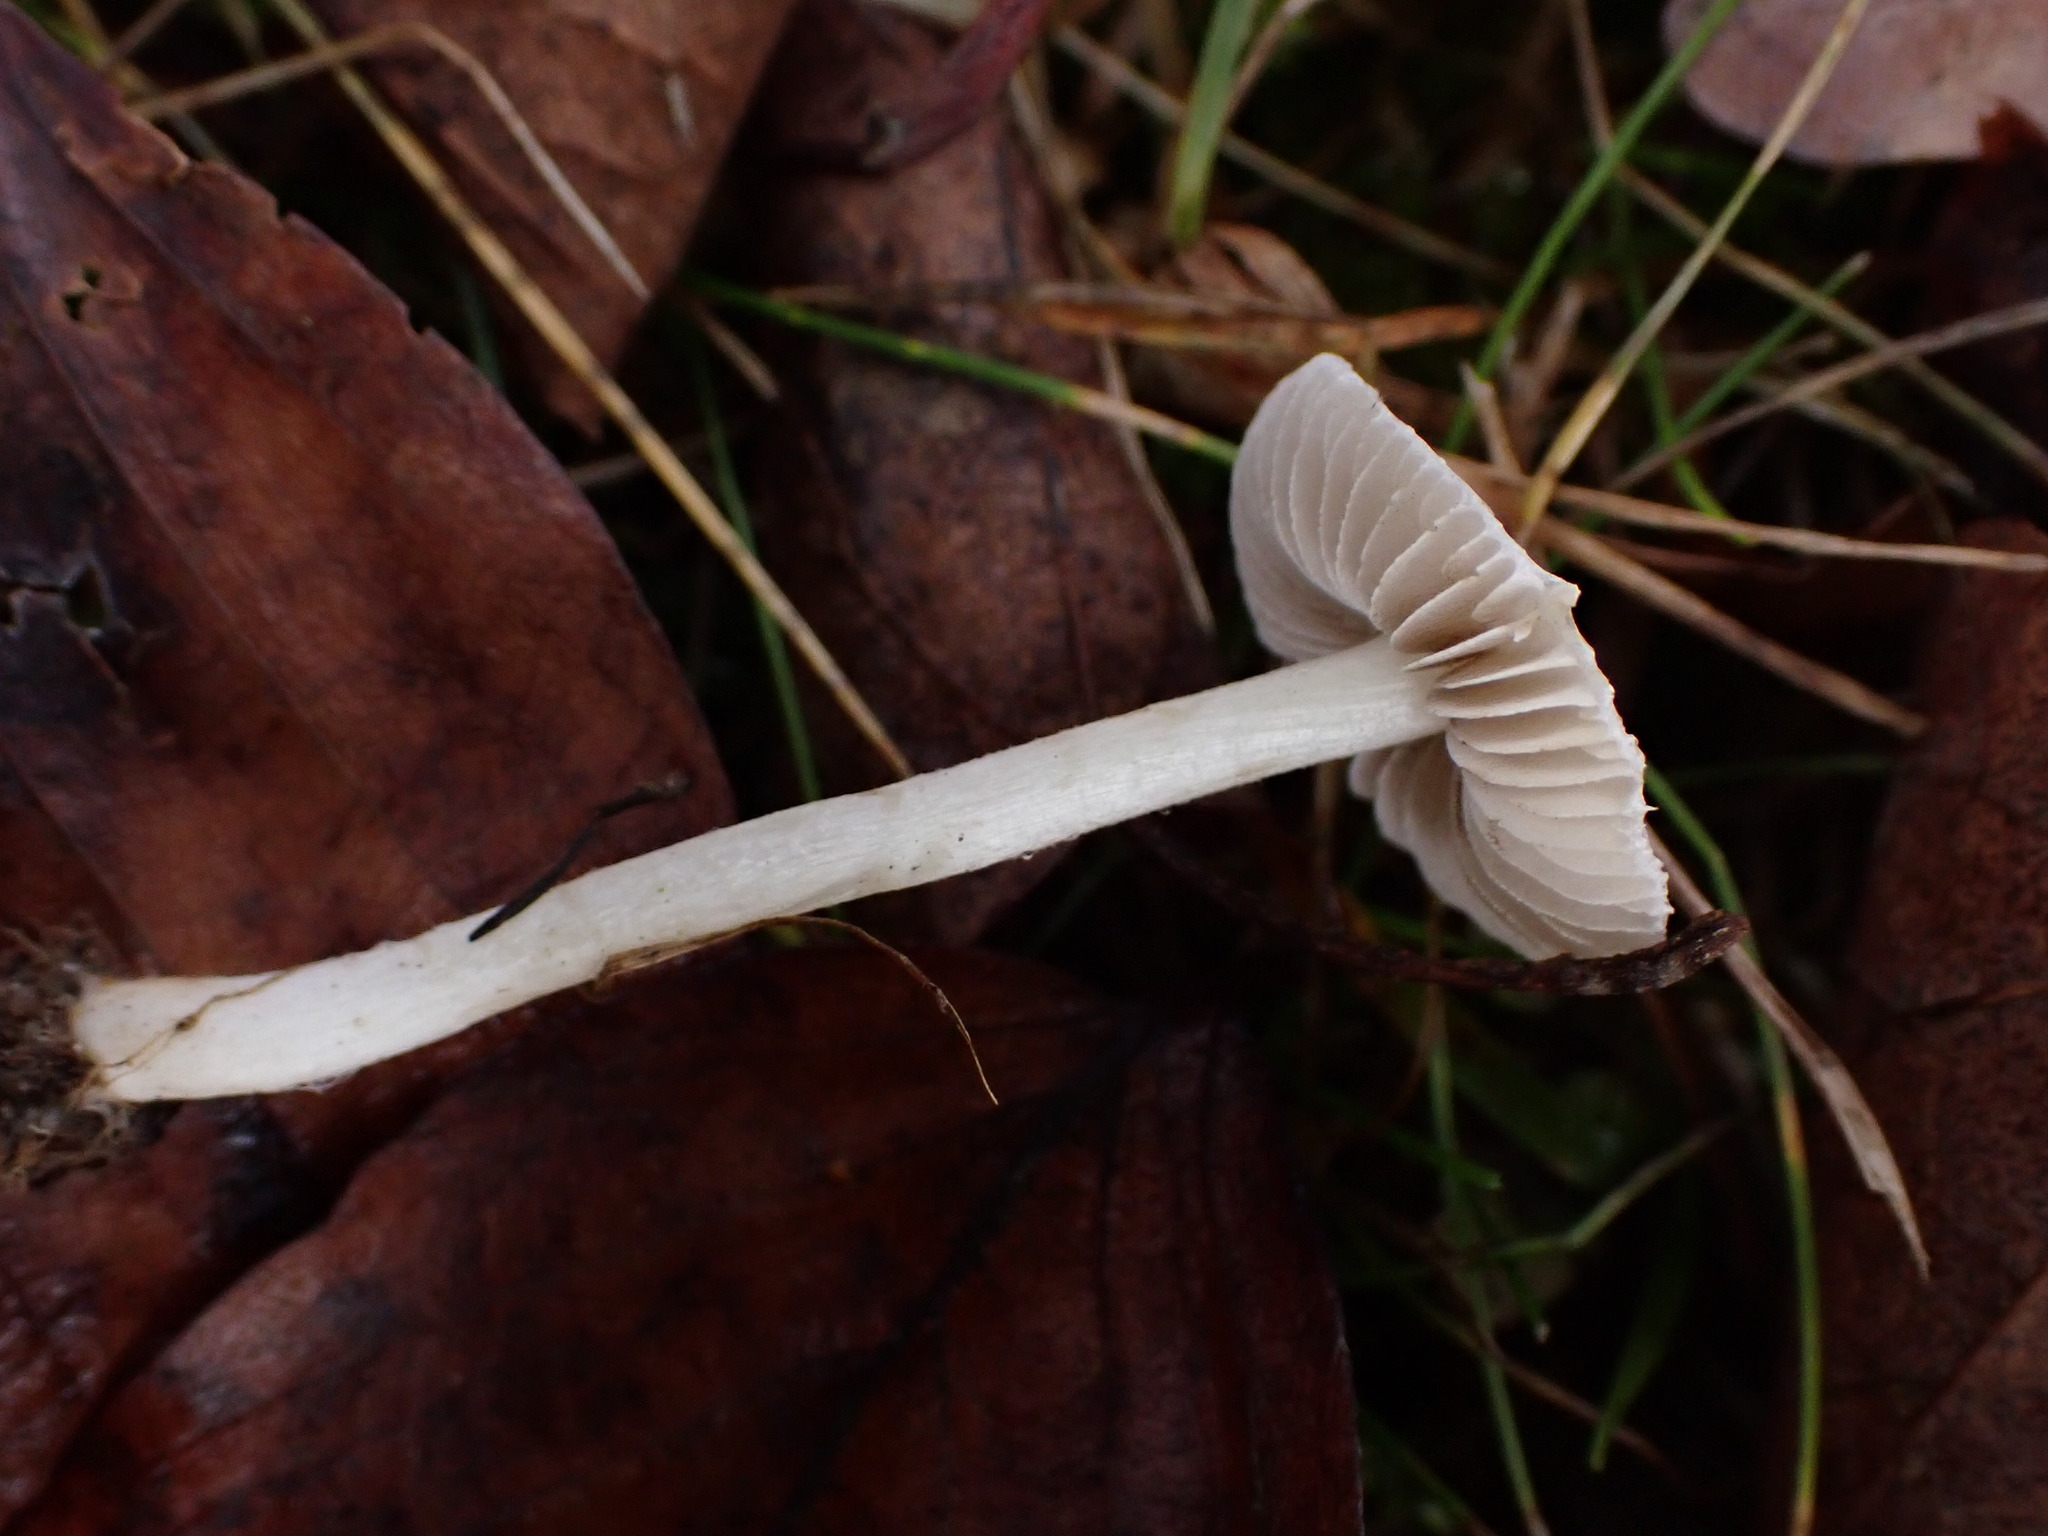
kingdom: Fungi
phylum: Basidiomycota
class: Agaricomycetes
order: Agaricales
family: Inocybaceae
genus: Inocybe
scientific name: Inocybe
